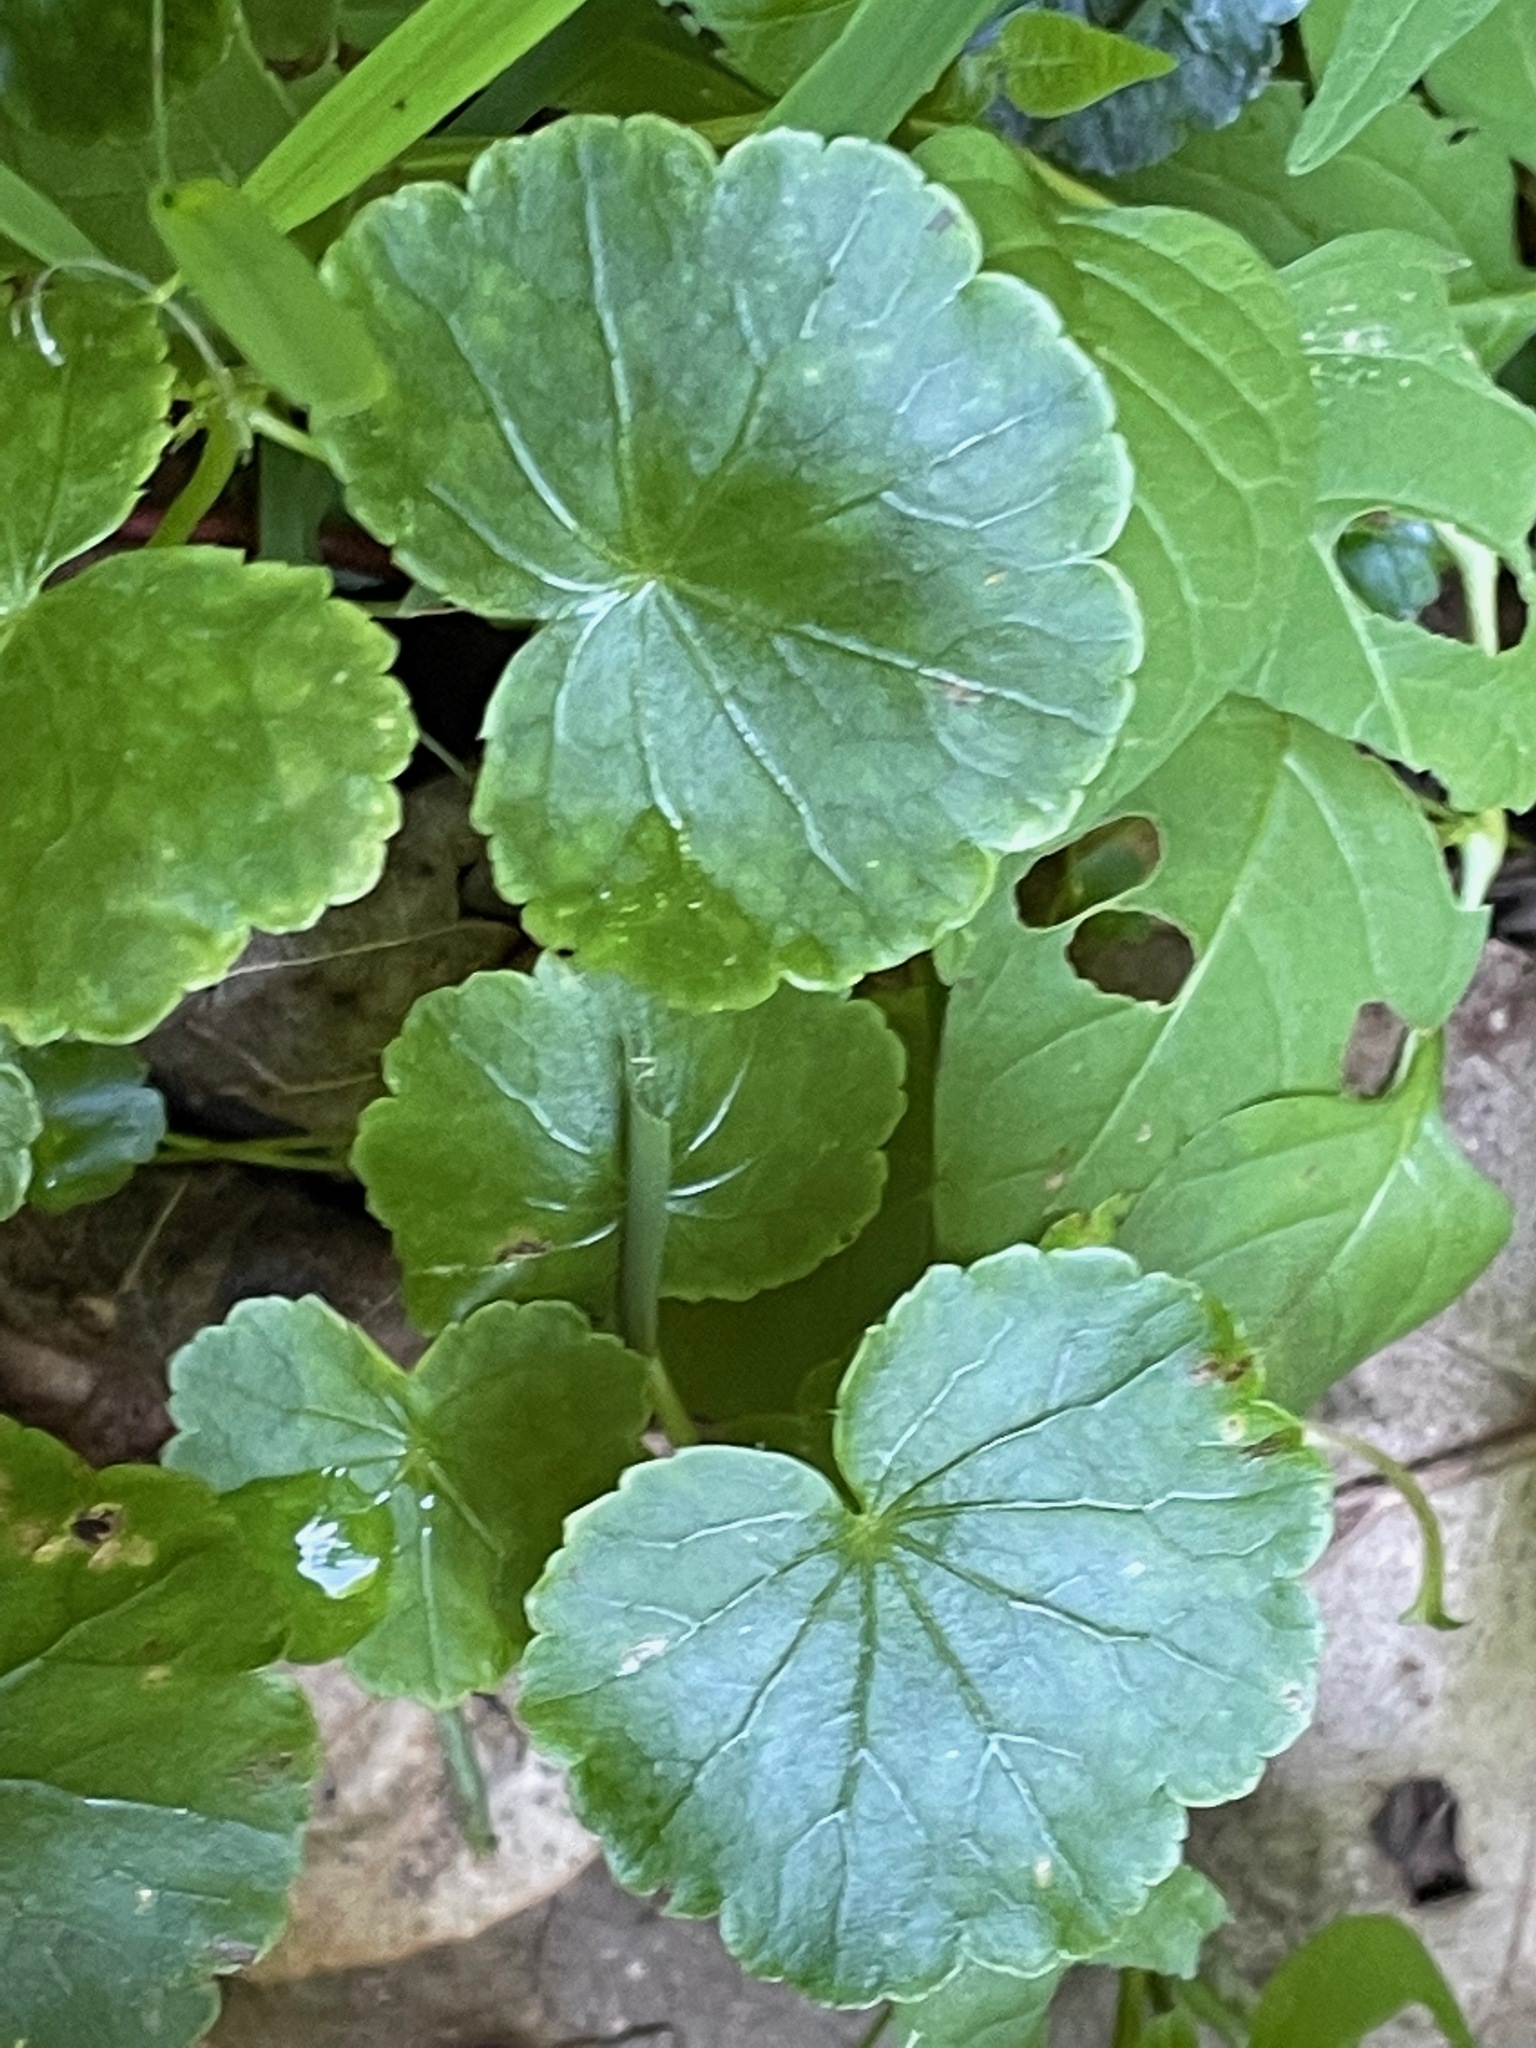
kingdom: Plantae
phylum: Tracheophyta
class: Magnoliopsida
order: Apiales
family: Araliaceae
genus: Hydrocotyle
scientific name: Hydrocotyle americana
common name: American water-pennywort
